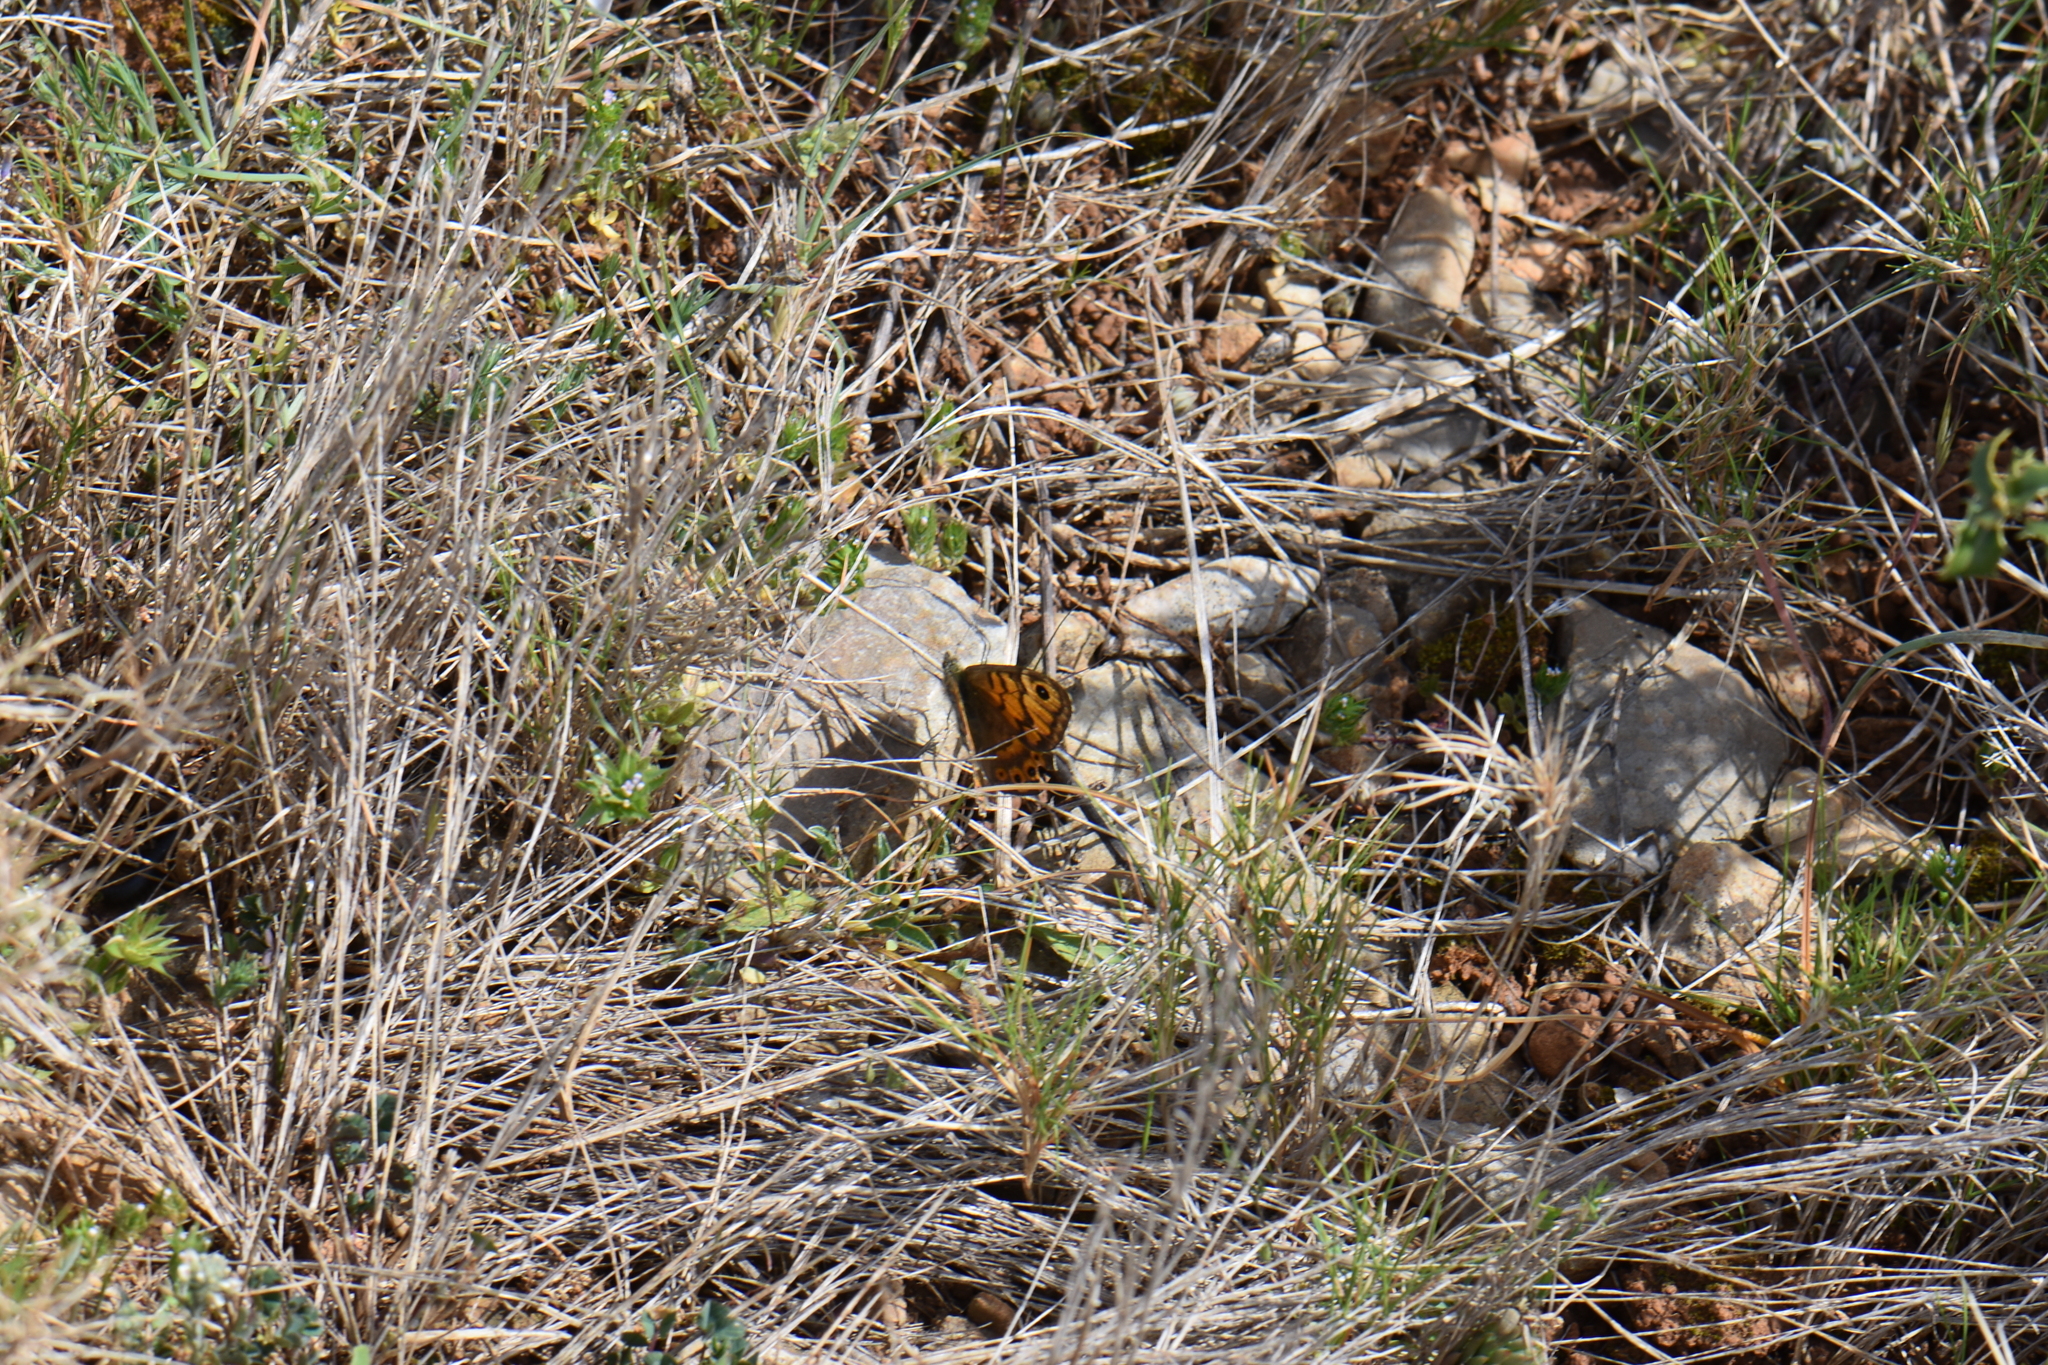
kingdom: Animalia
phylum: Arthropoda
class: Insecta
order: Lepidoptera
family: Nymphalidae
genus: Pararge
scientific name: Pararge Lasiommata megera
